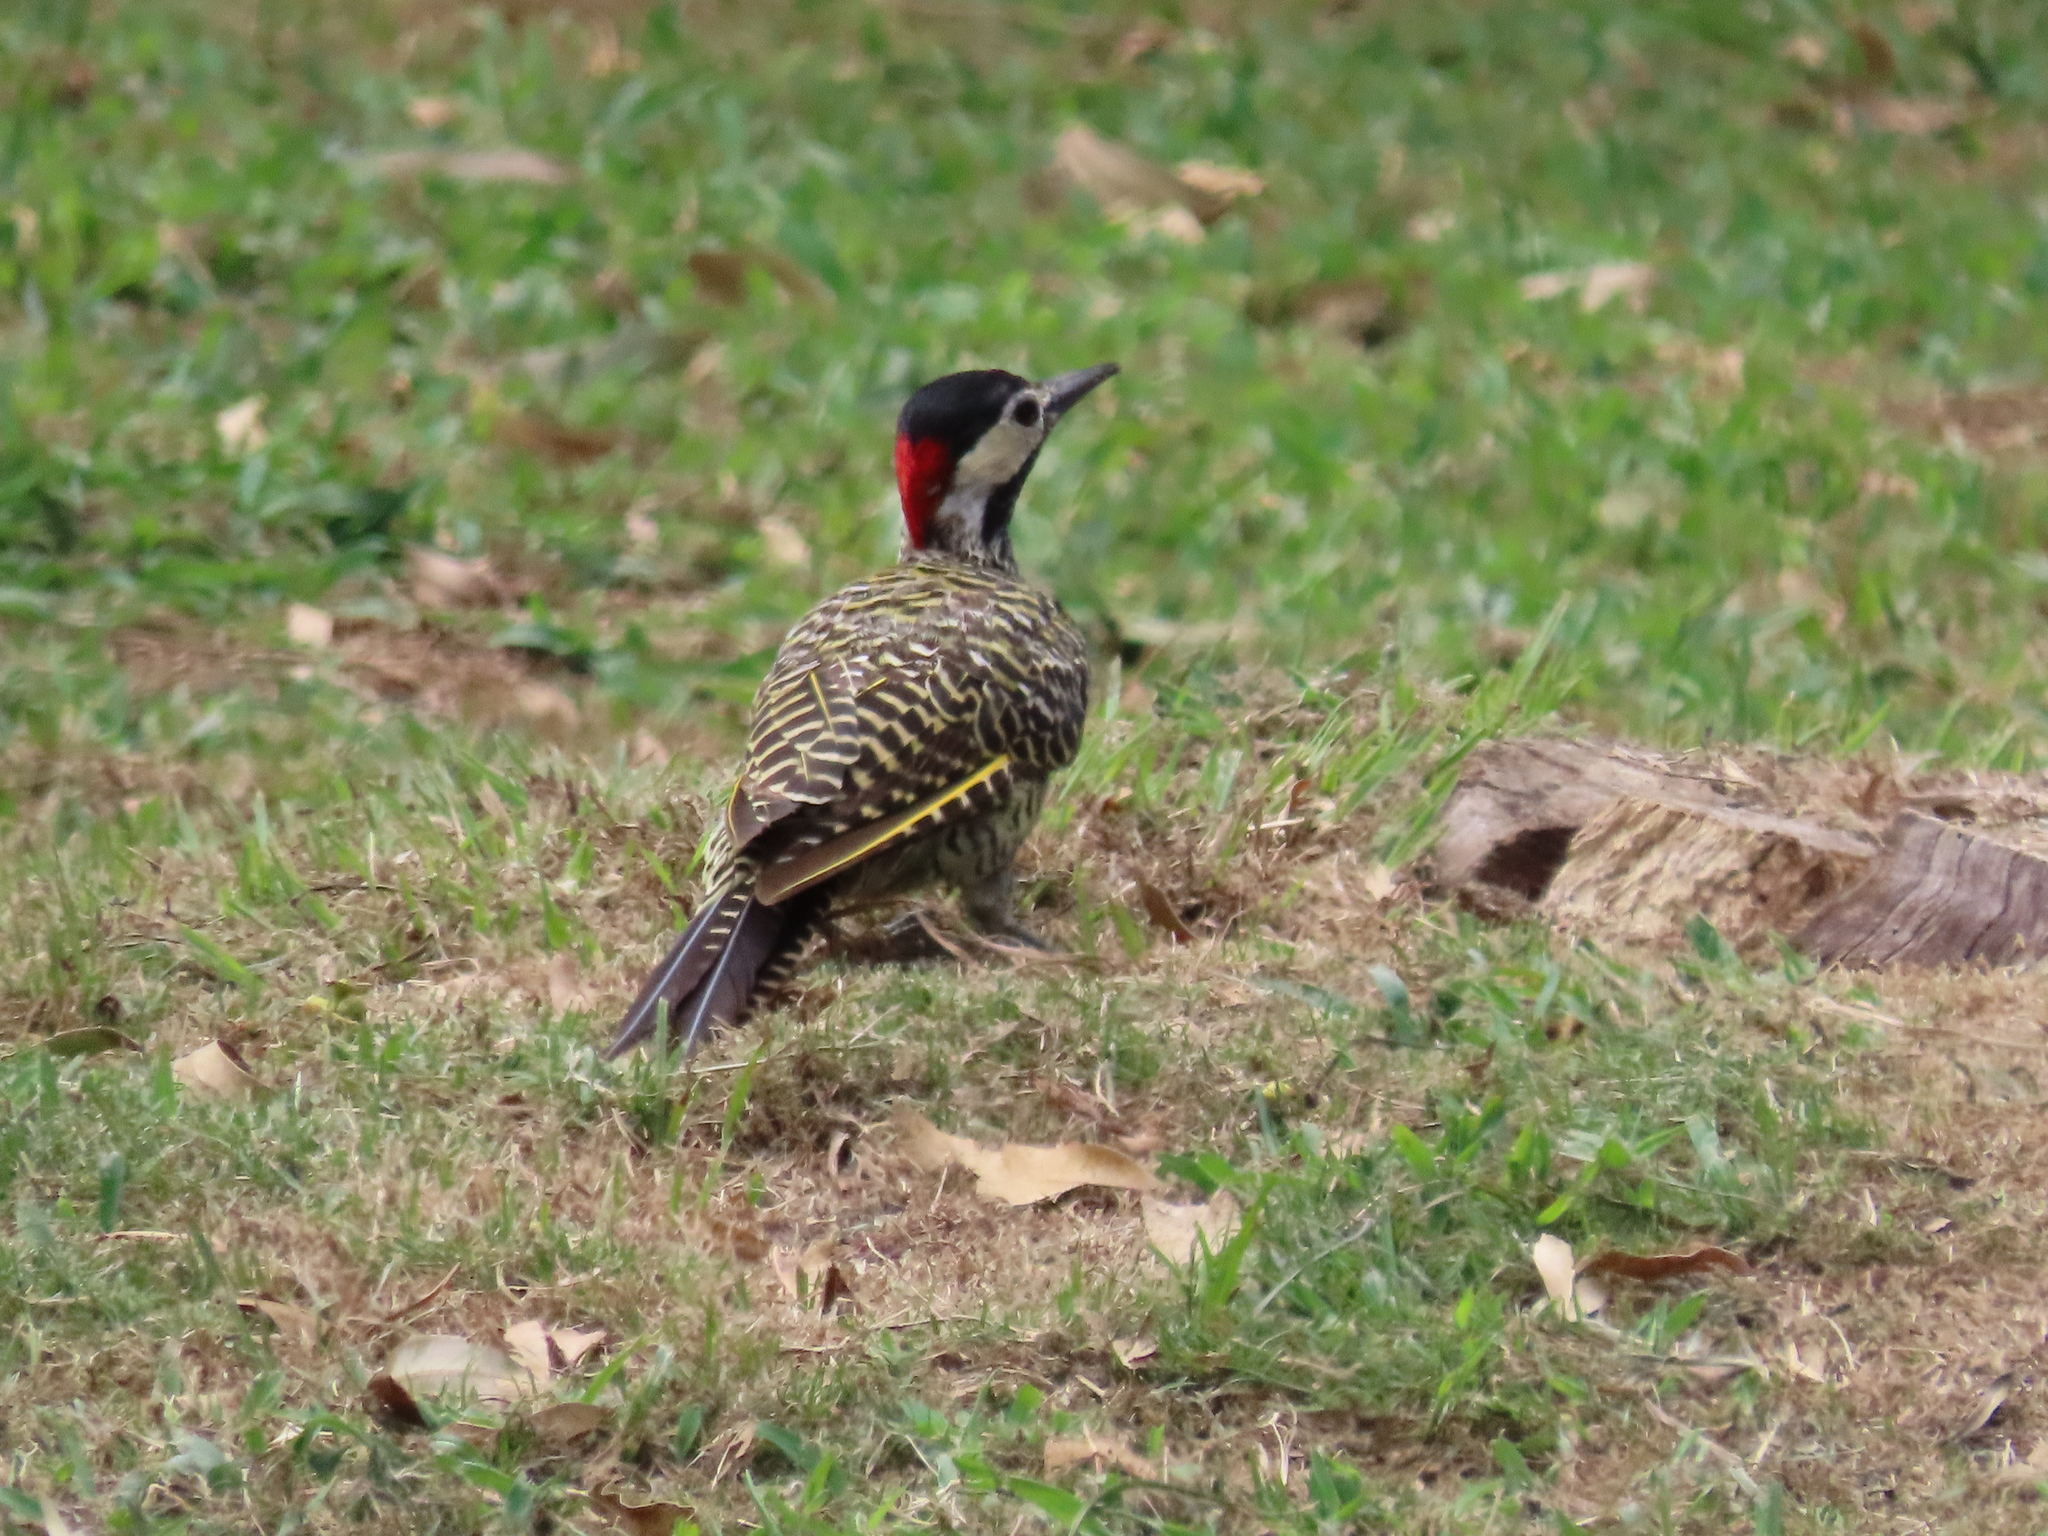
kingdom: Animalia
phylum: Chordata
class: Aves
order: Piciformes
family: Picidae
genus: Colaptes
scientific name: Colaptes melanochloros
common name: Green-barred woodpecker
